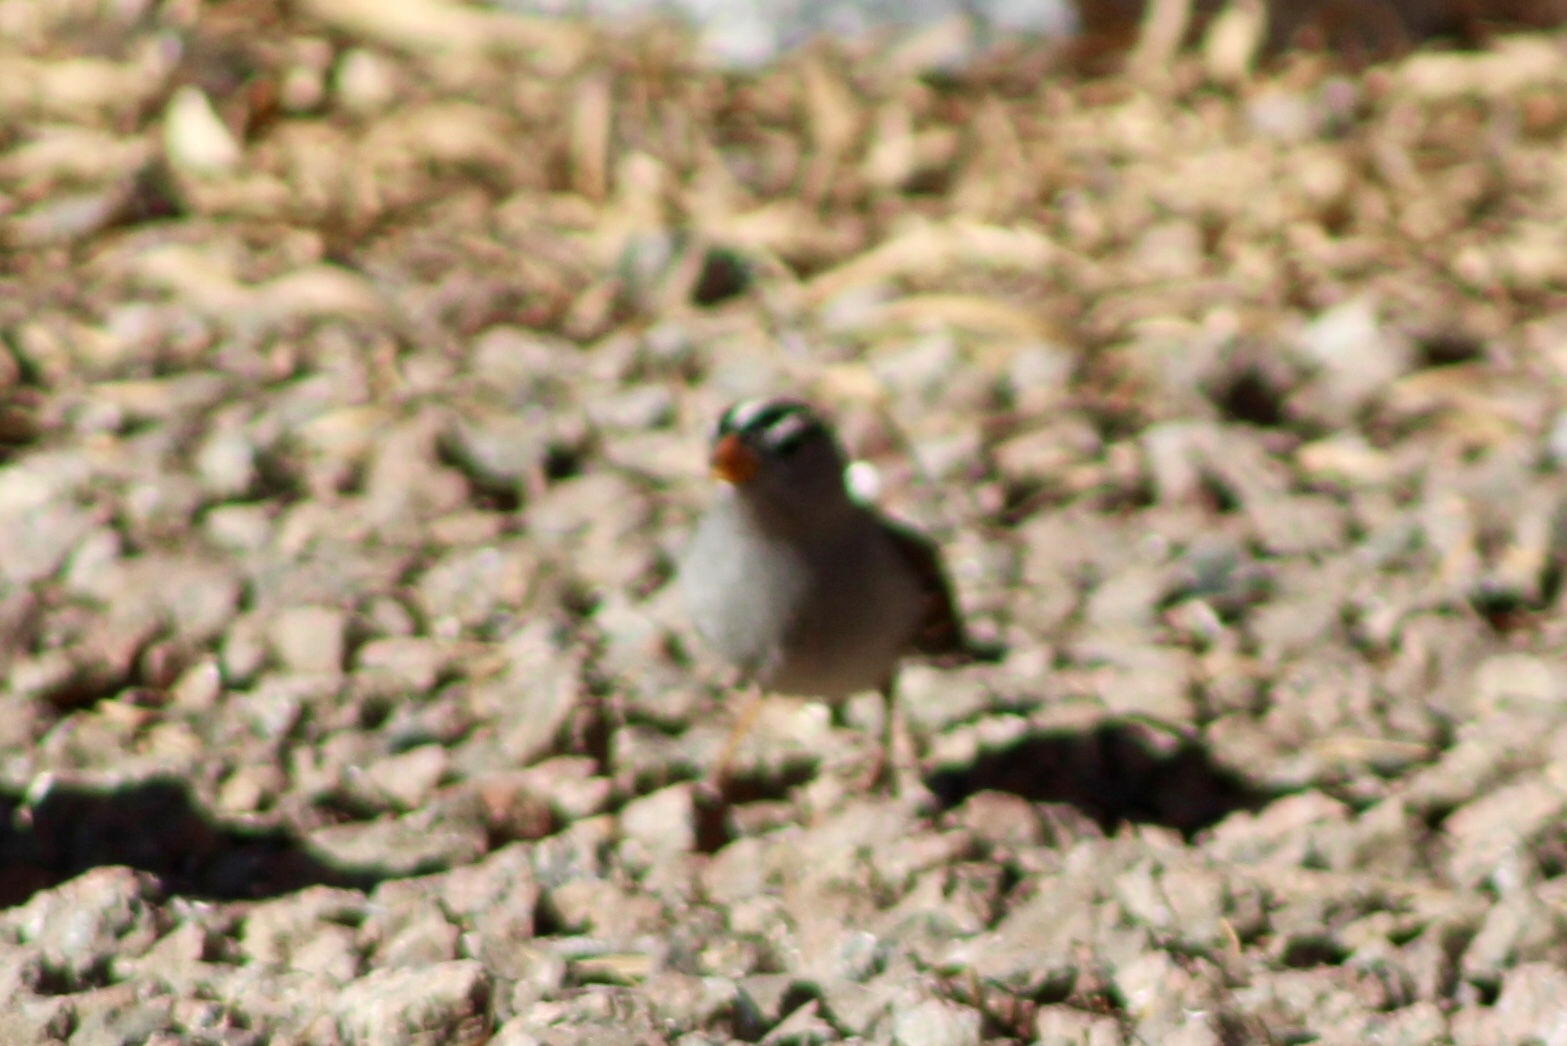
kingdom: Animalia
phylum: Chordata
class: Aves
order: Passeriformes
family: Passerellidae
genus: Zonotrichia
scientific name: Zonotrichia leucophrys
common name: White-crowned sparrow
